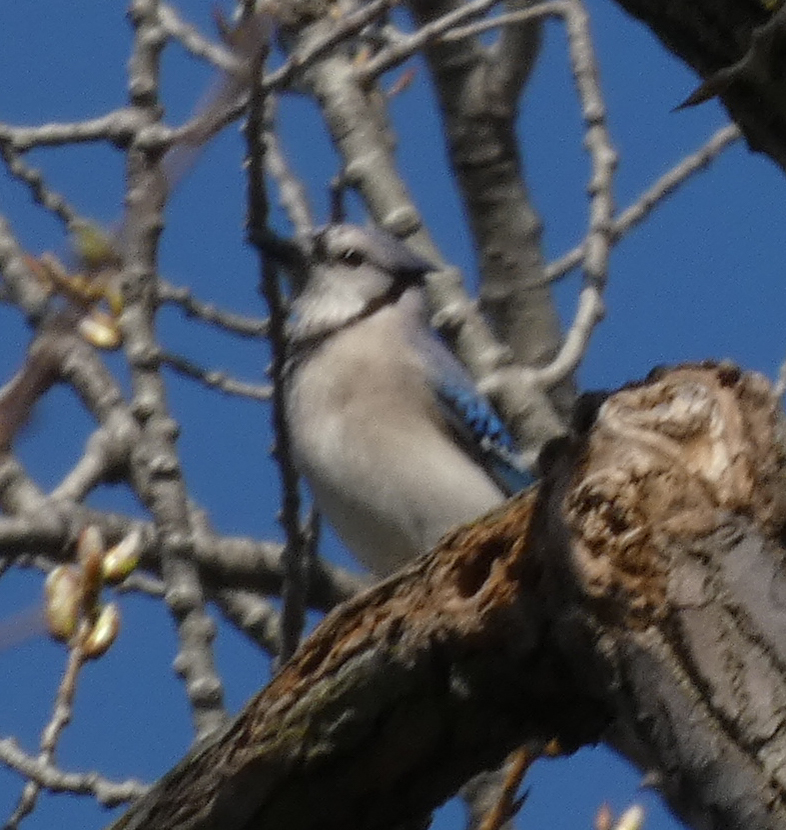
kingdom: Animalia
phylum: Chordata
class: Aves
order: Passeriformes
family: Corvidae
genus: Cyanocitta
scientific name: Cyanocitta cristata
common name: Blue jay
